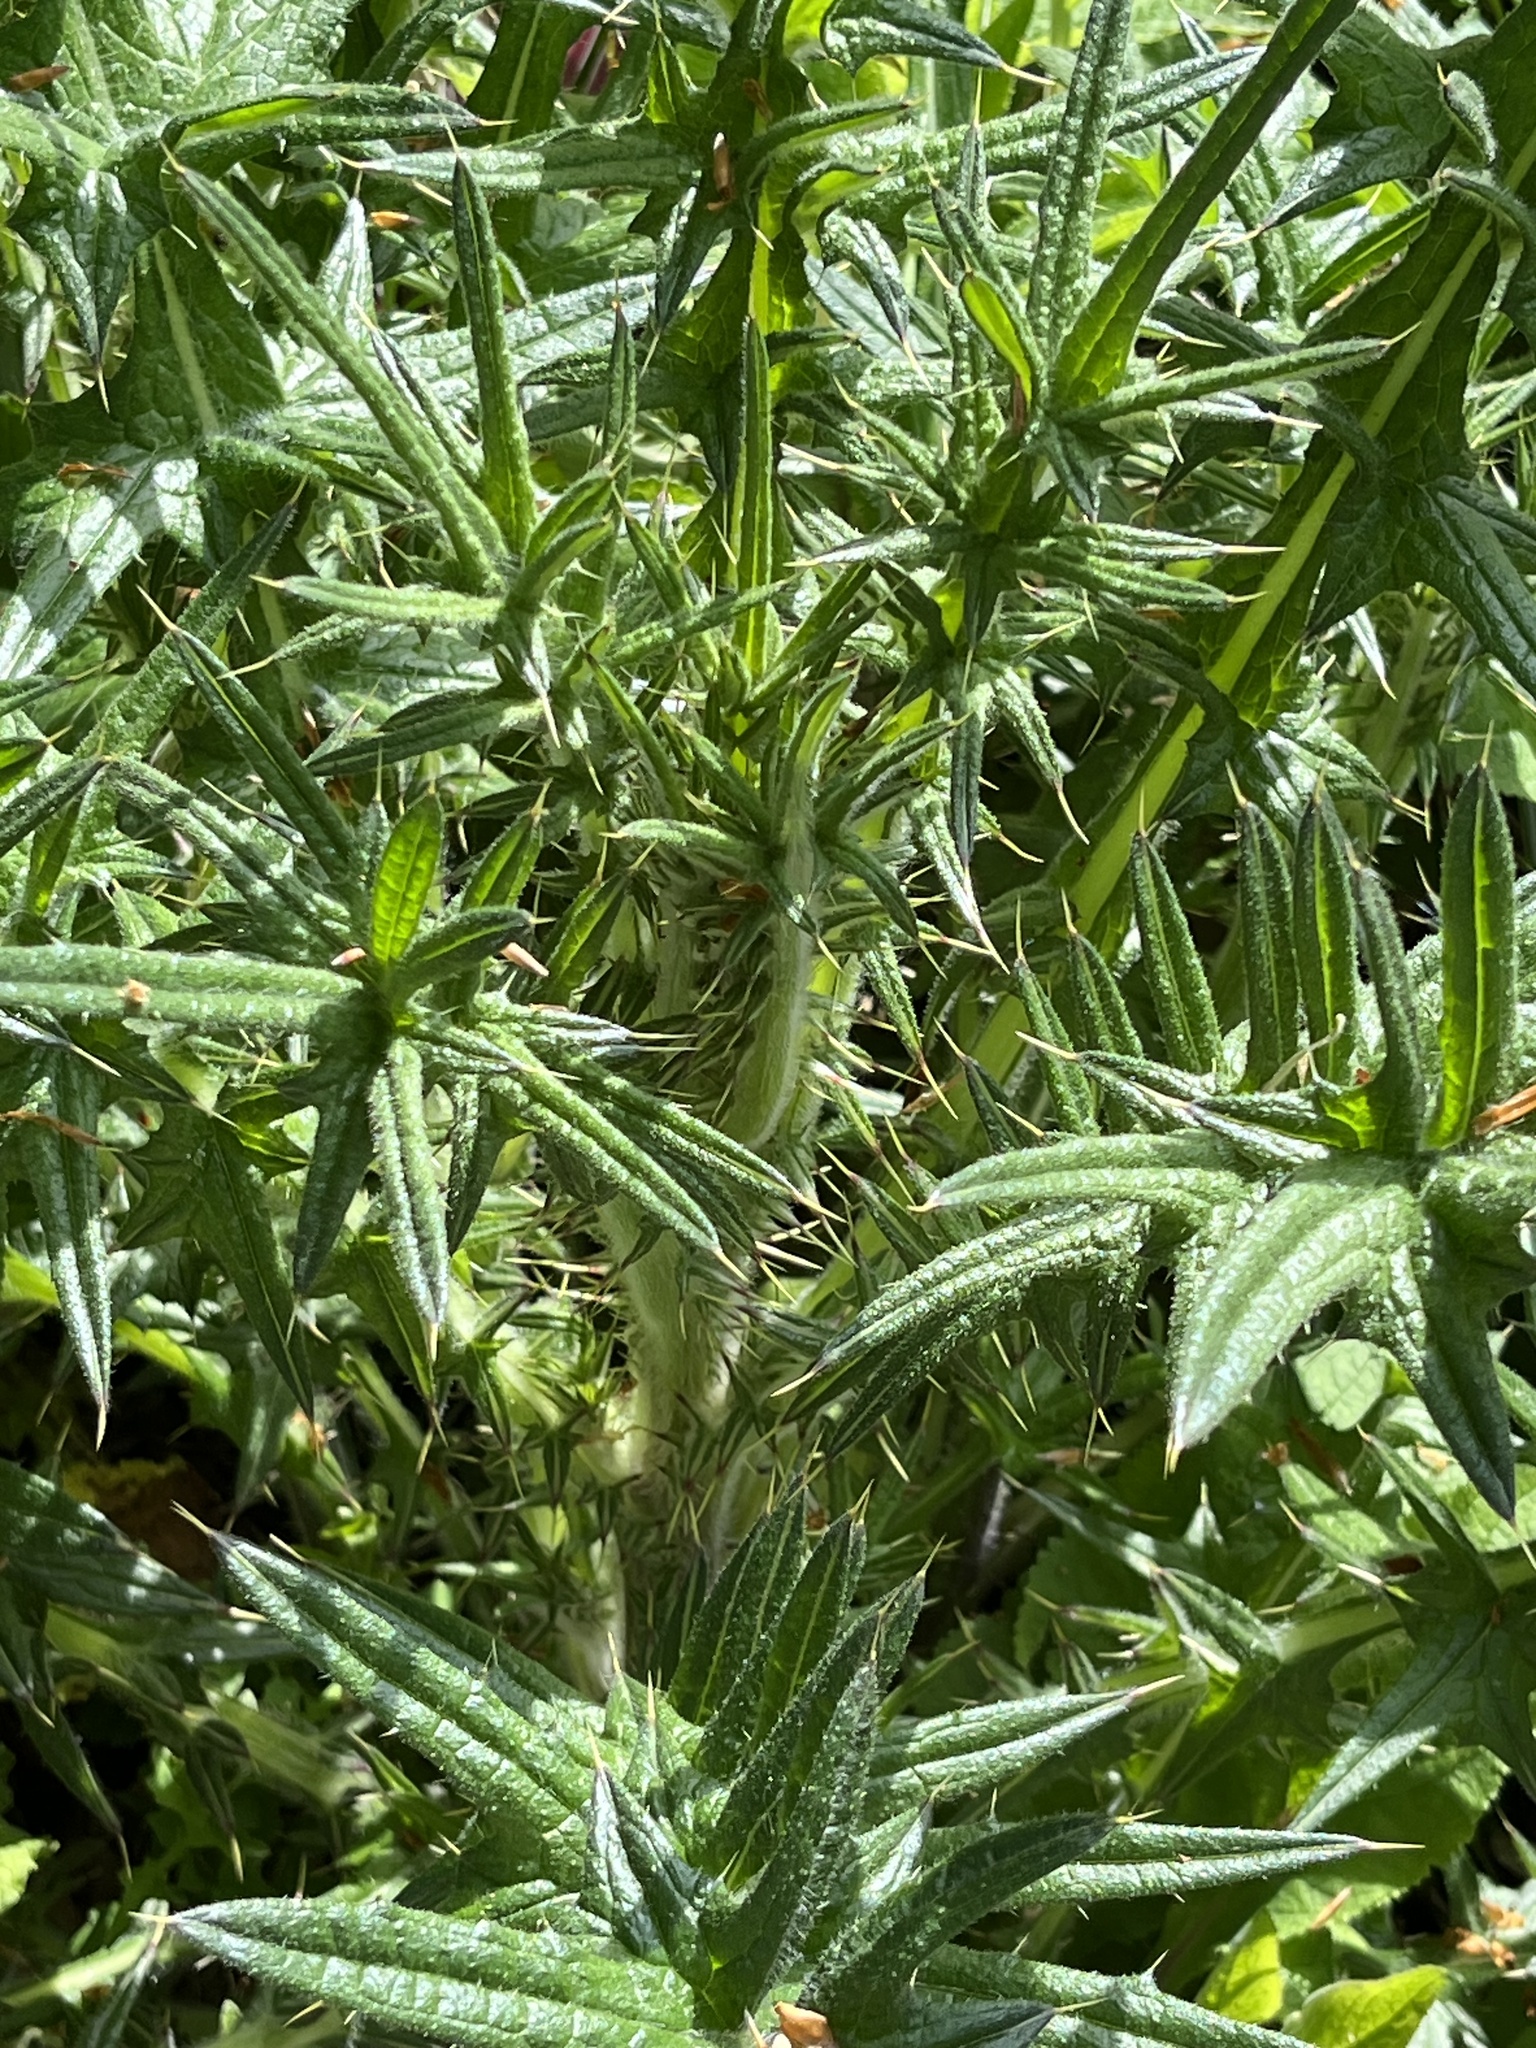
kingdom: Plantae
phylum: Tracheophyta
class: Magnoliopsida
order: Asterales
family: Asteraceae
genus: Lophiolepis
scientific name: Lophiolepis eriophora
